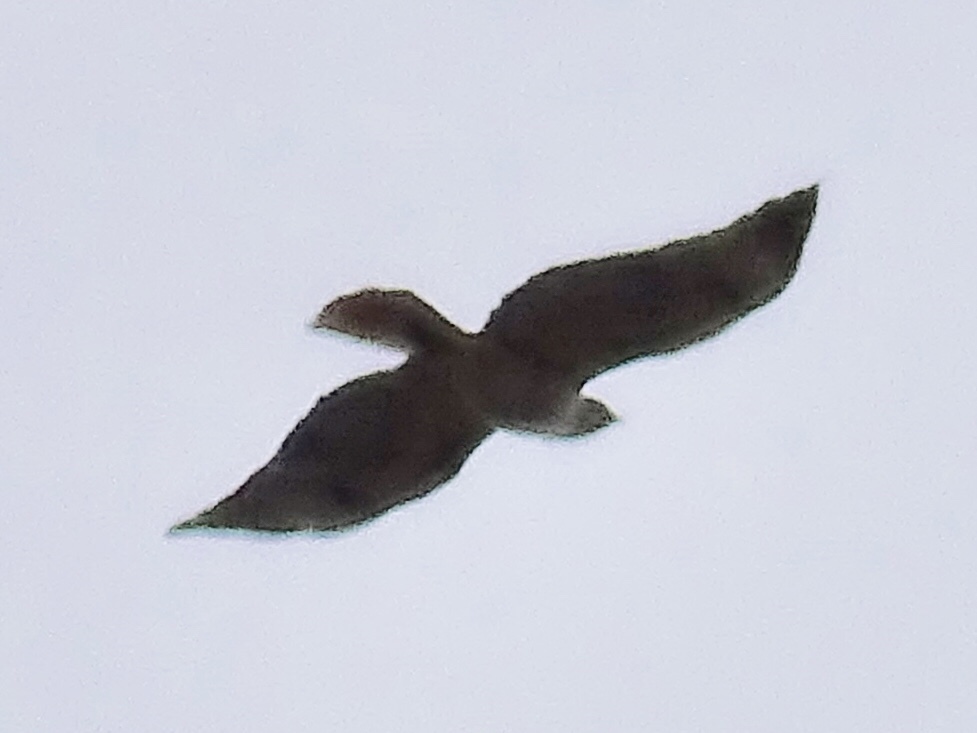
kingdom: Animalia
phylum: Chordata
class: Aves
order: Accipitriformes
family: Accipitridae
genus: Buteo
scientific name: Buteo jamaicensis
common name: Red-tailed hawk
